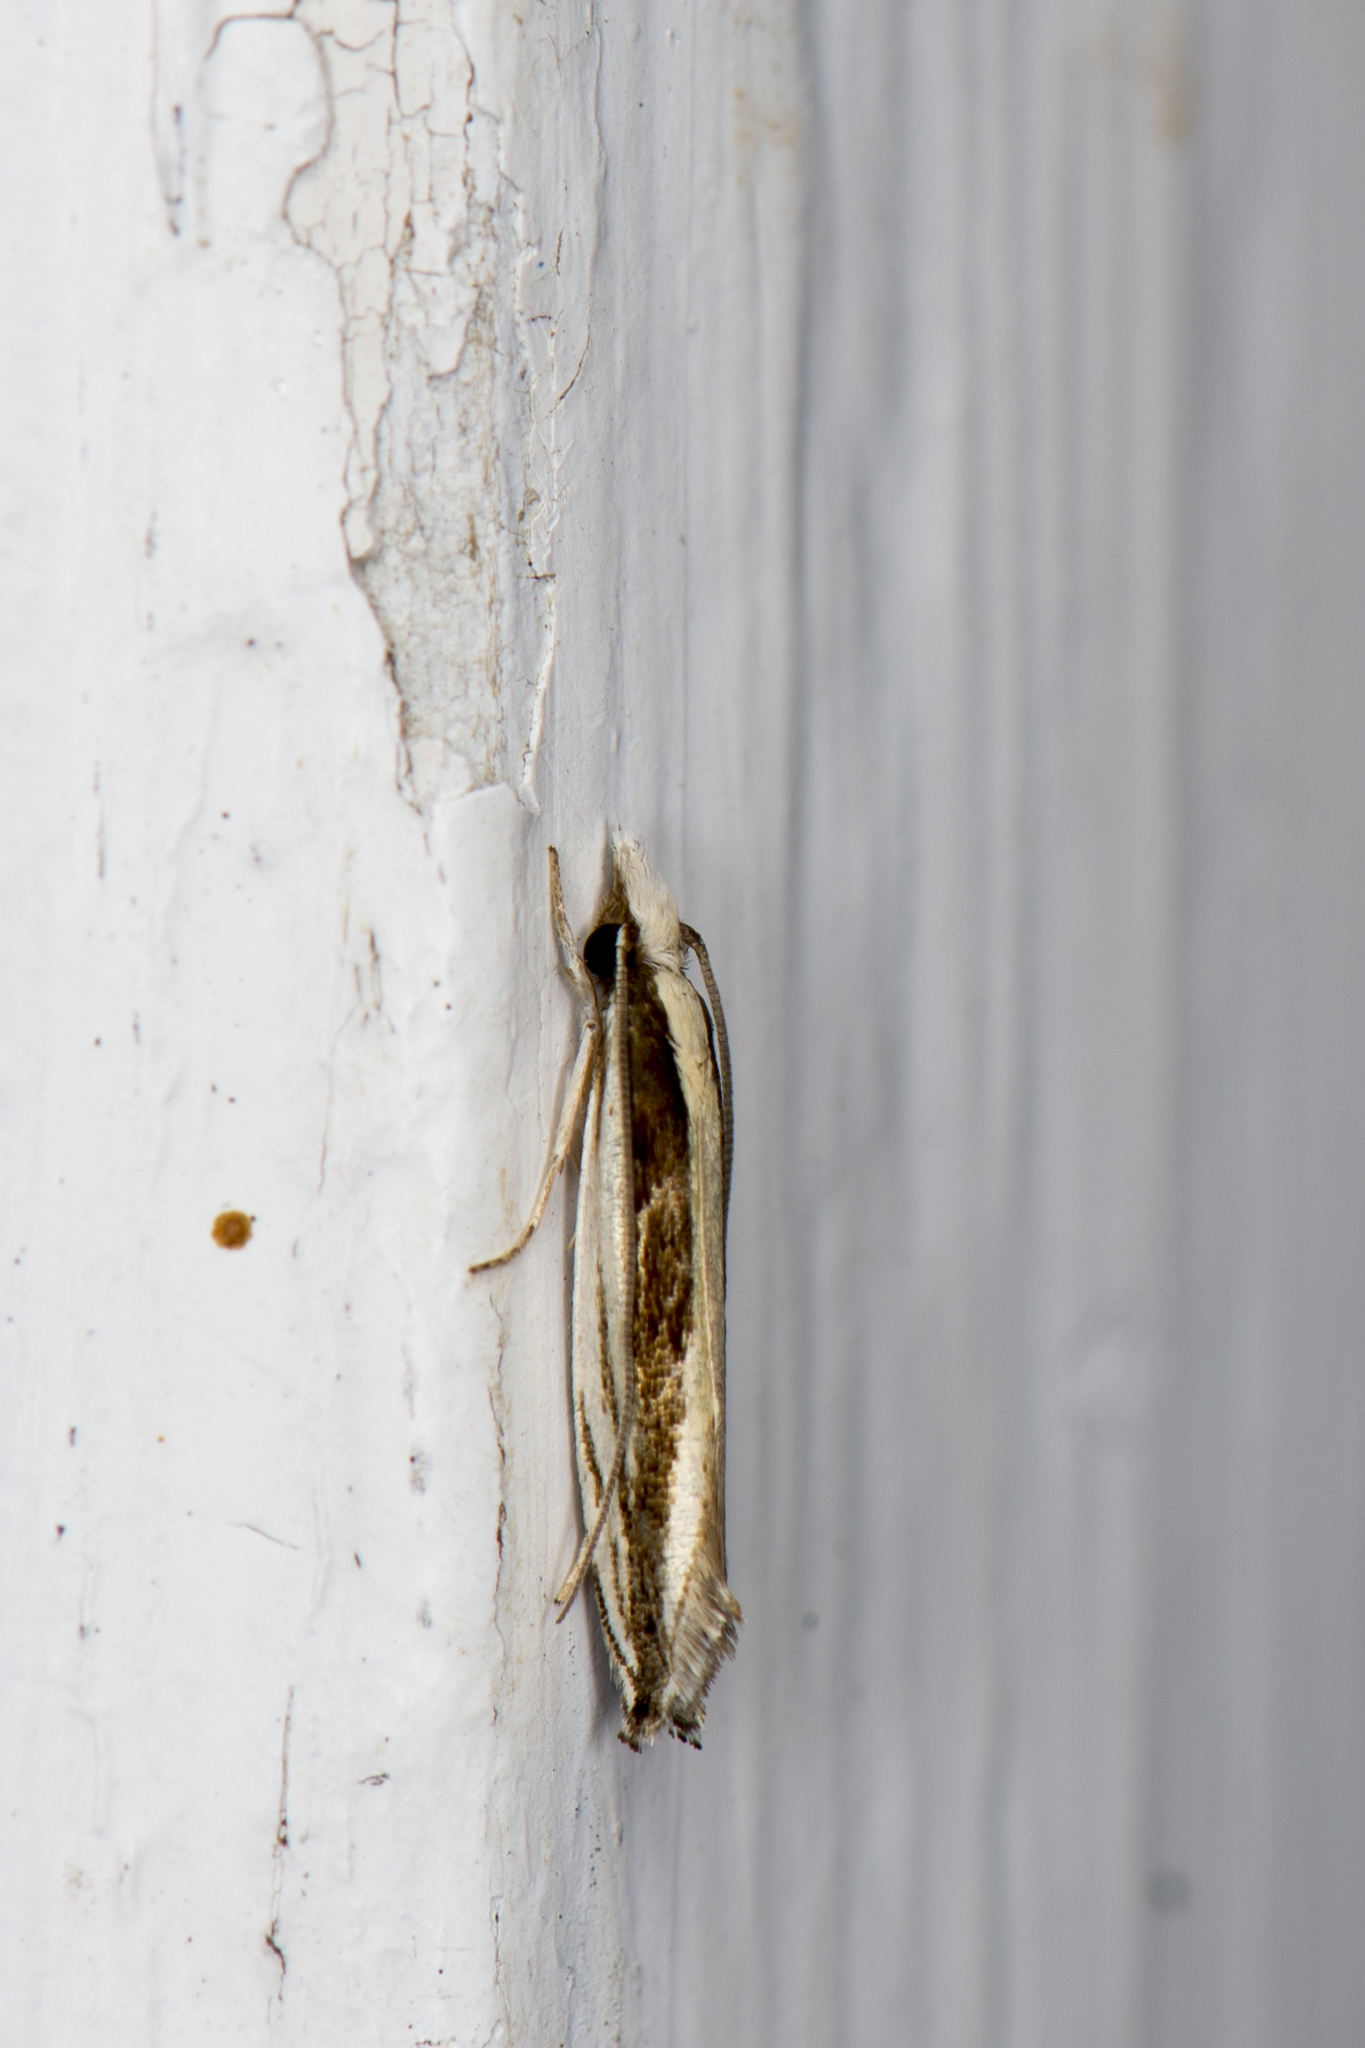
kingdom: Animalia
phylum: Arthropoda
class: Insecta
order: Lepidoptera
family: Tineidae
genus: Erechthias
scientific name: Erechthias stilbella
